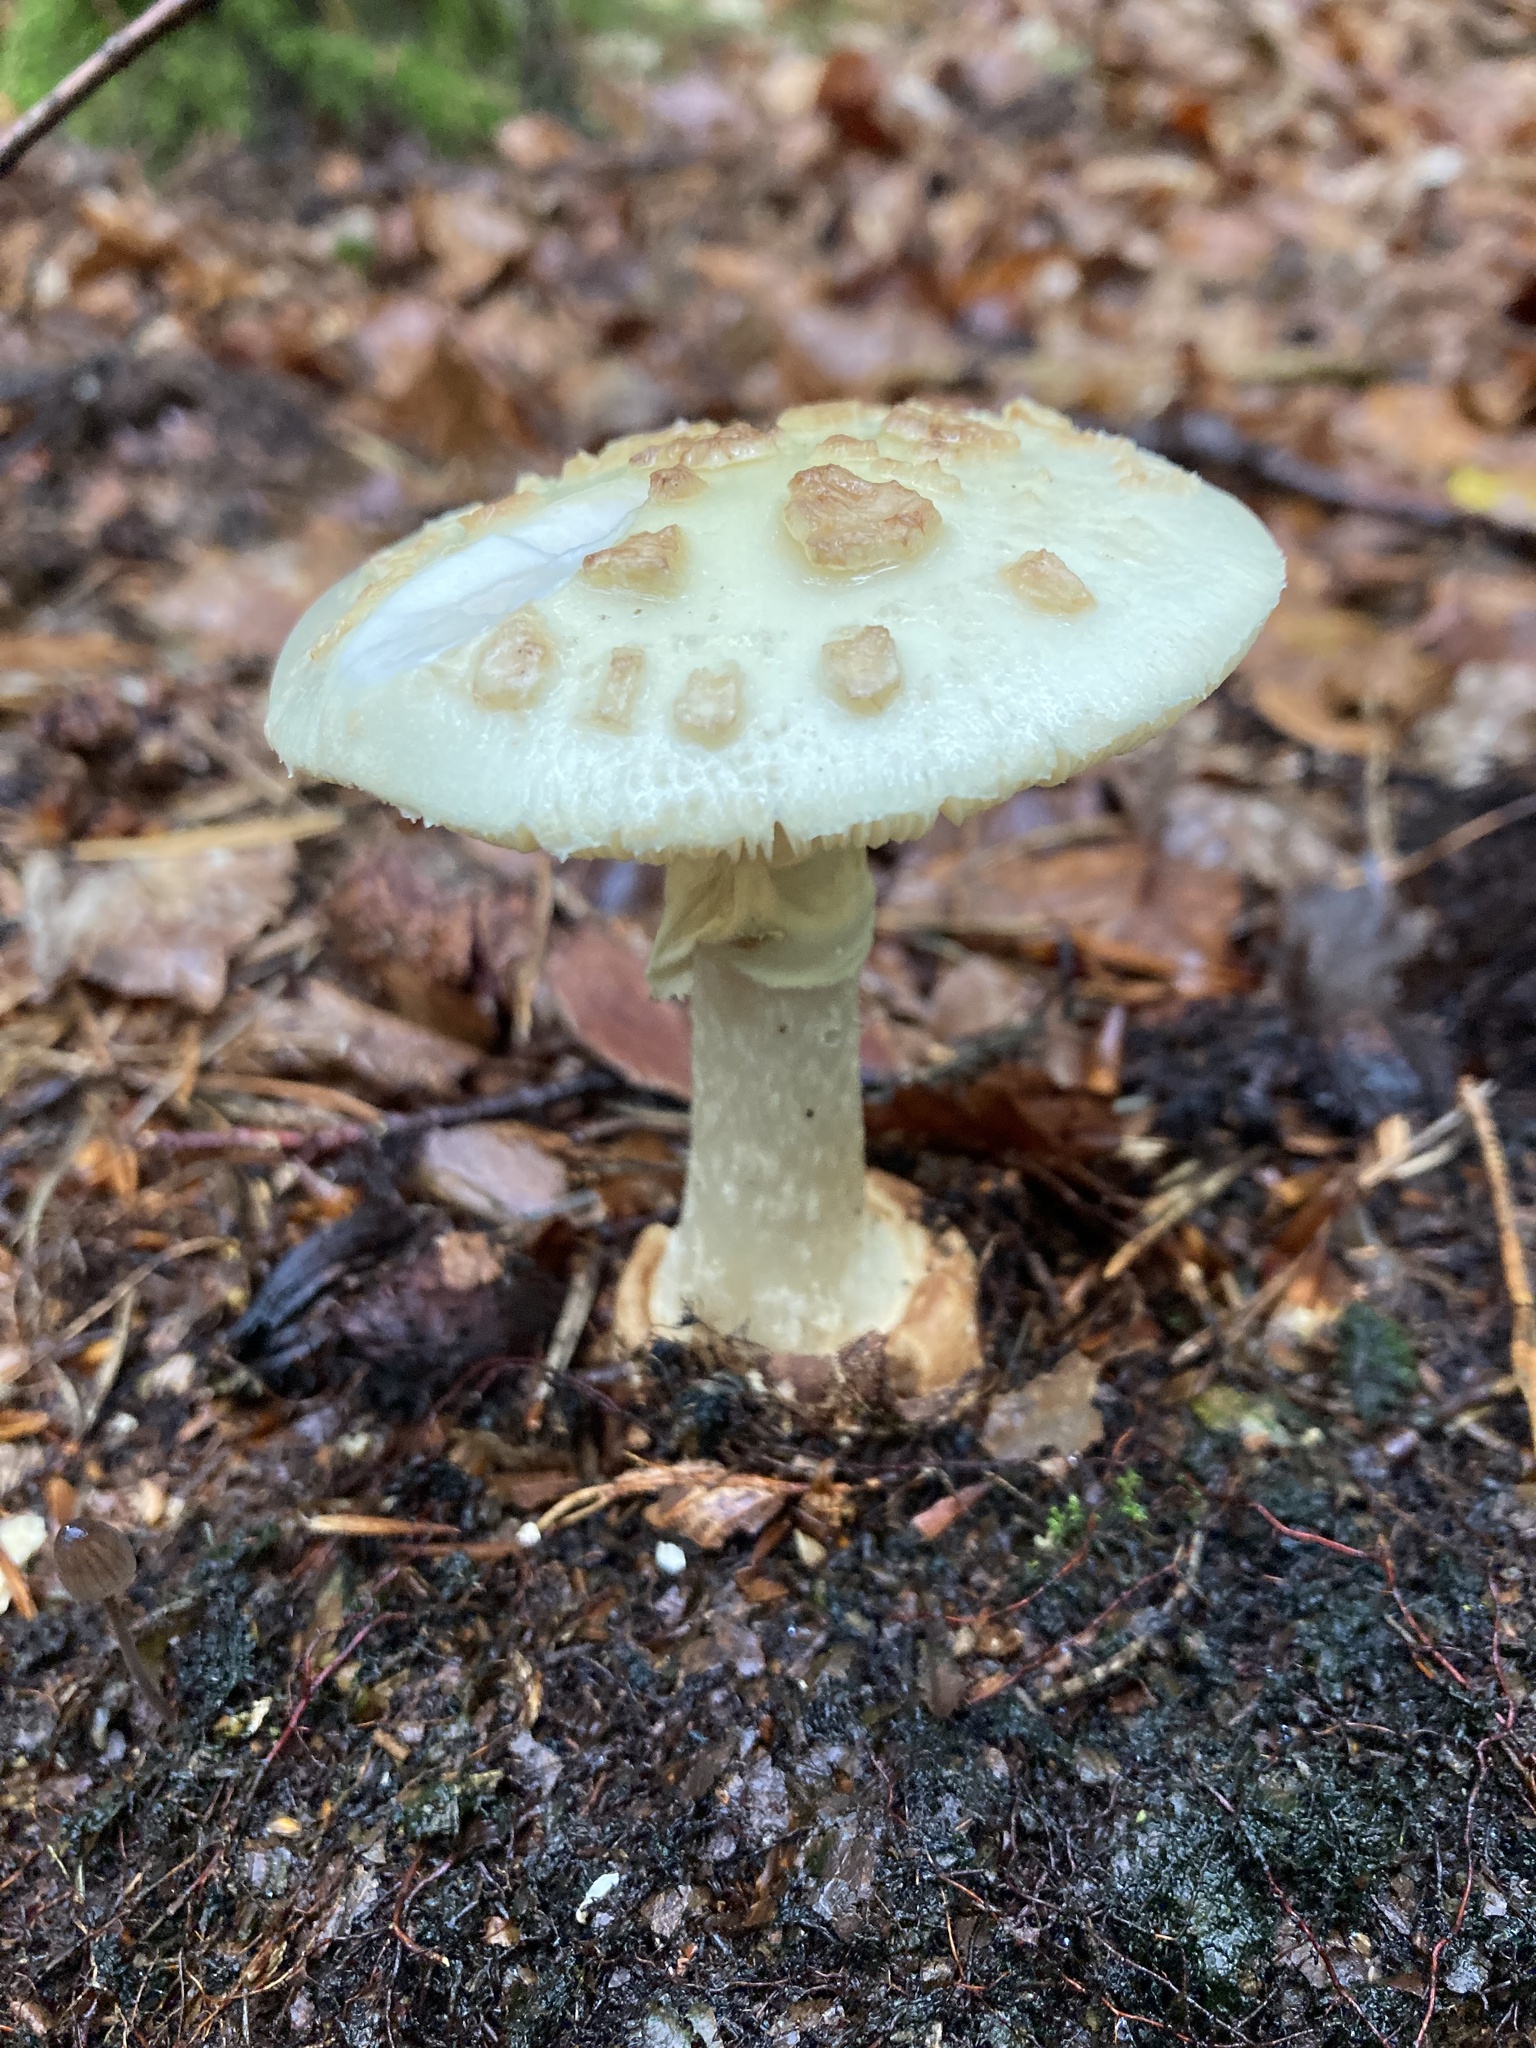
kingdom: Fungi
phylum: Basidiomycota
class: Agaricomycetes
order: Agaricales
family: Amanitaceae
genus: Amanita
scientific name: Amanita citrina
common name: False death-cap
